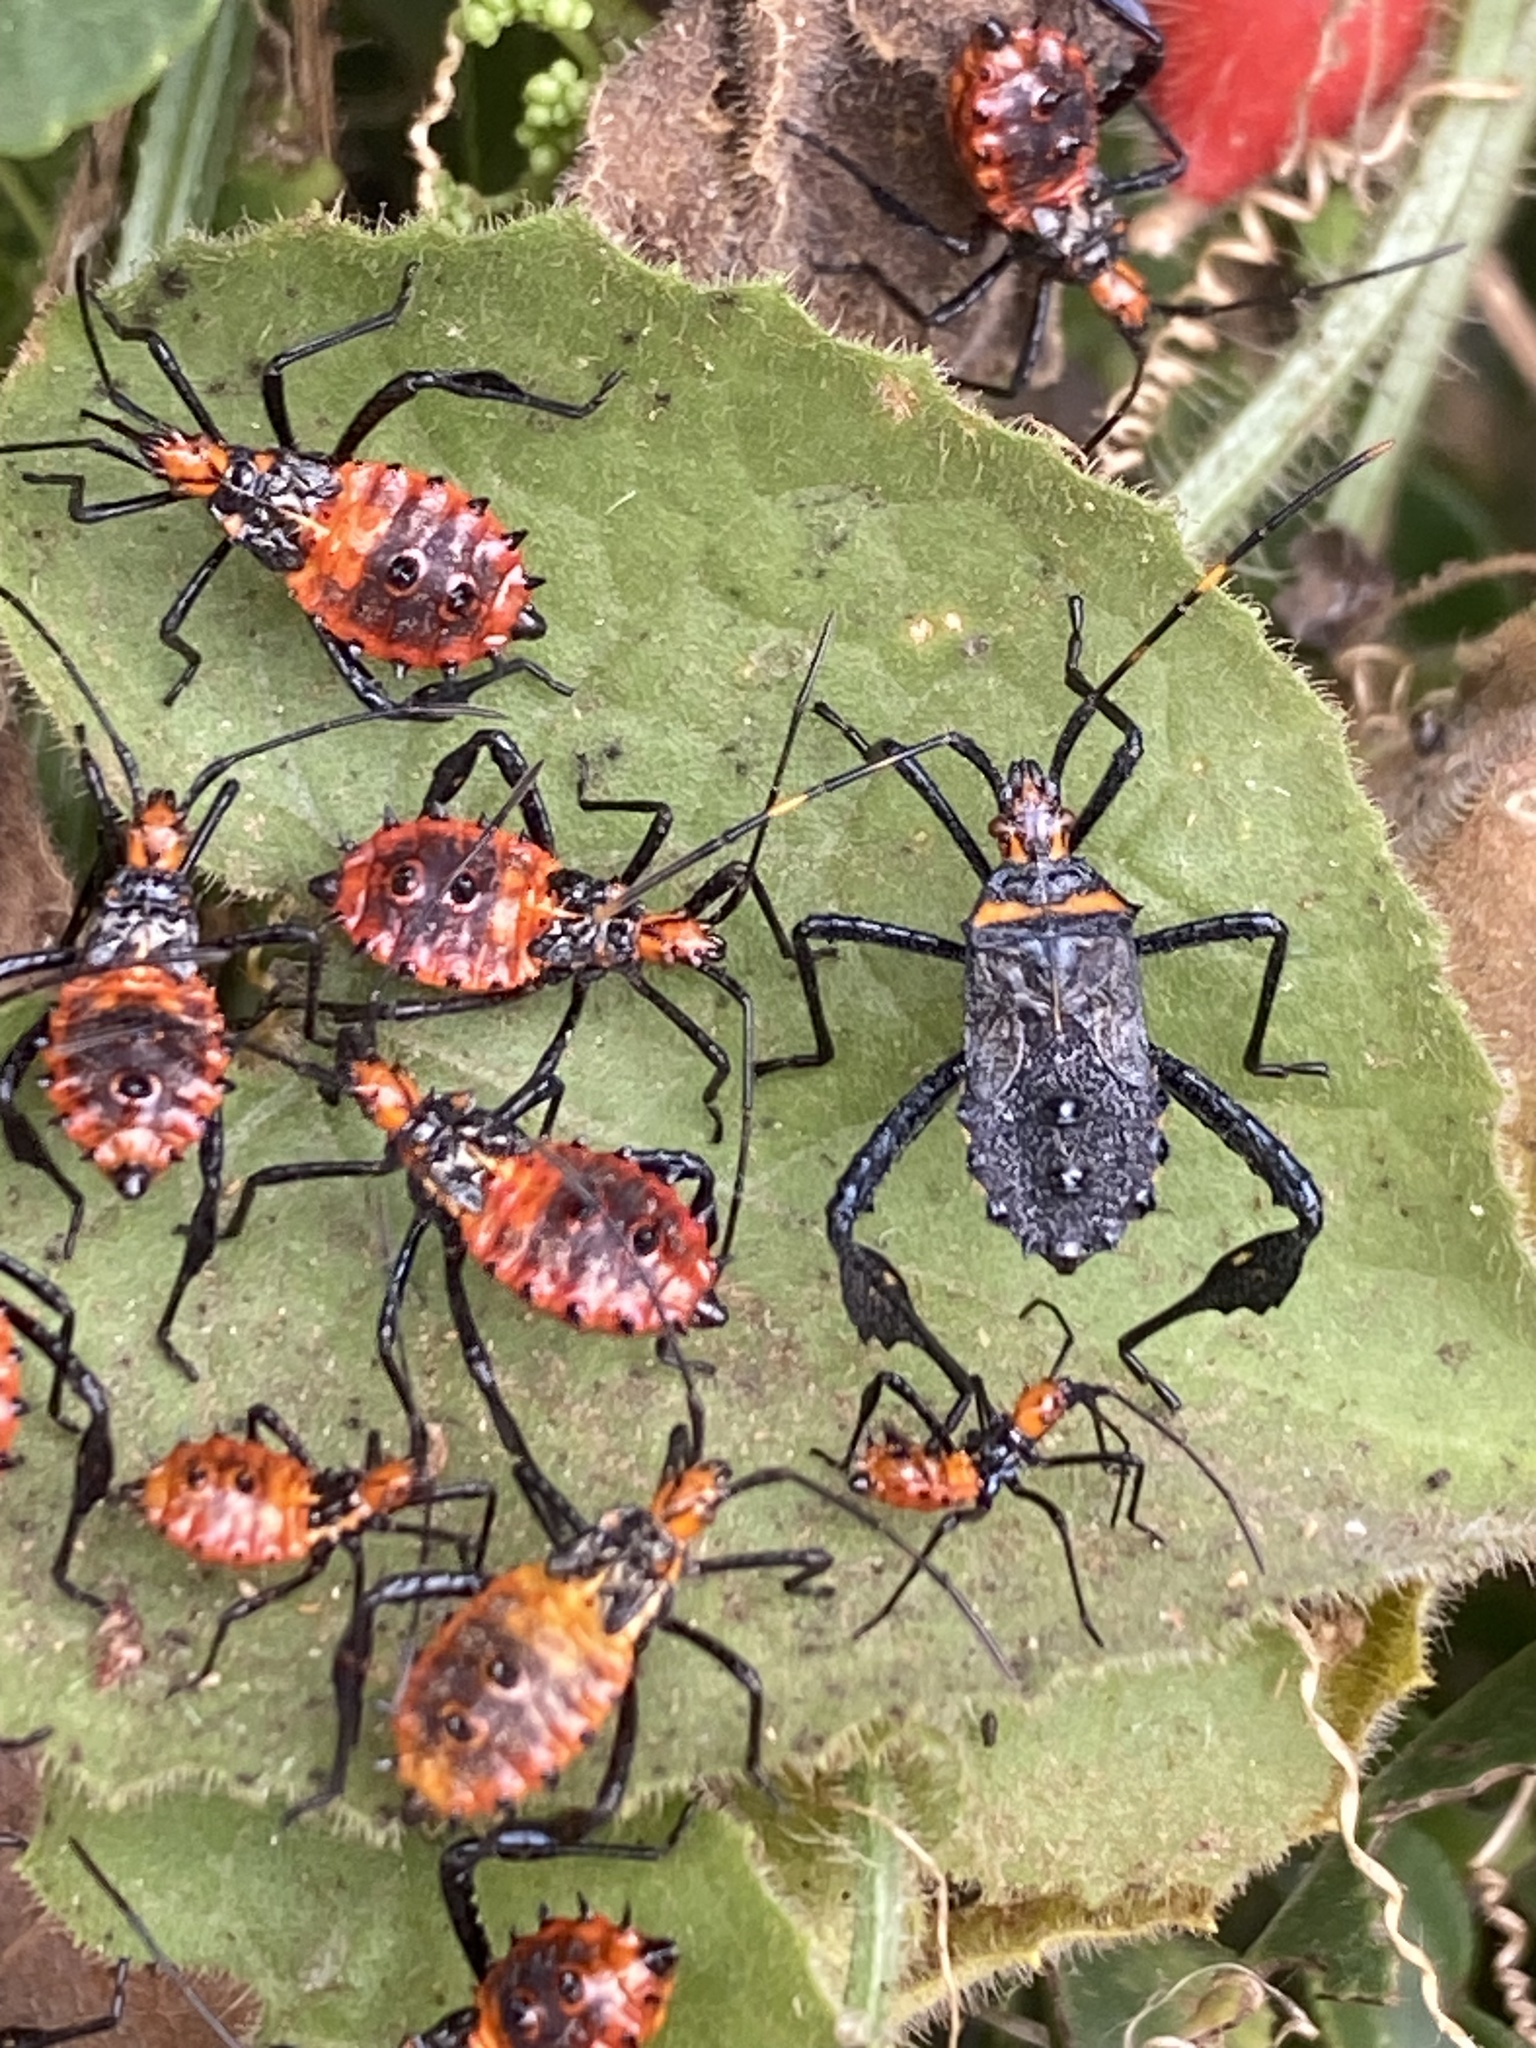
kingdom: Animalia
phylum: Arthropoda
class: Insecta
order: Hemiptera
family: Coreidae
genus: Leptoglossus
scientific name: Leptoglossus gonagra
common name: Citron bug
